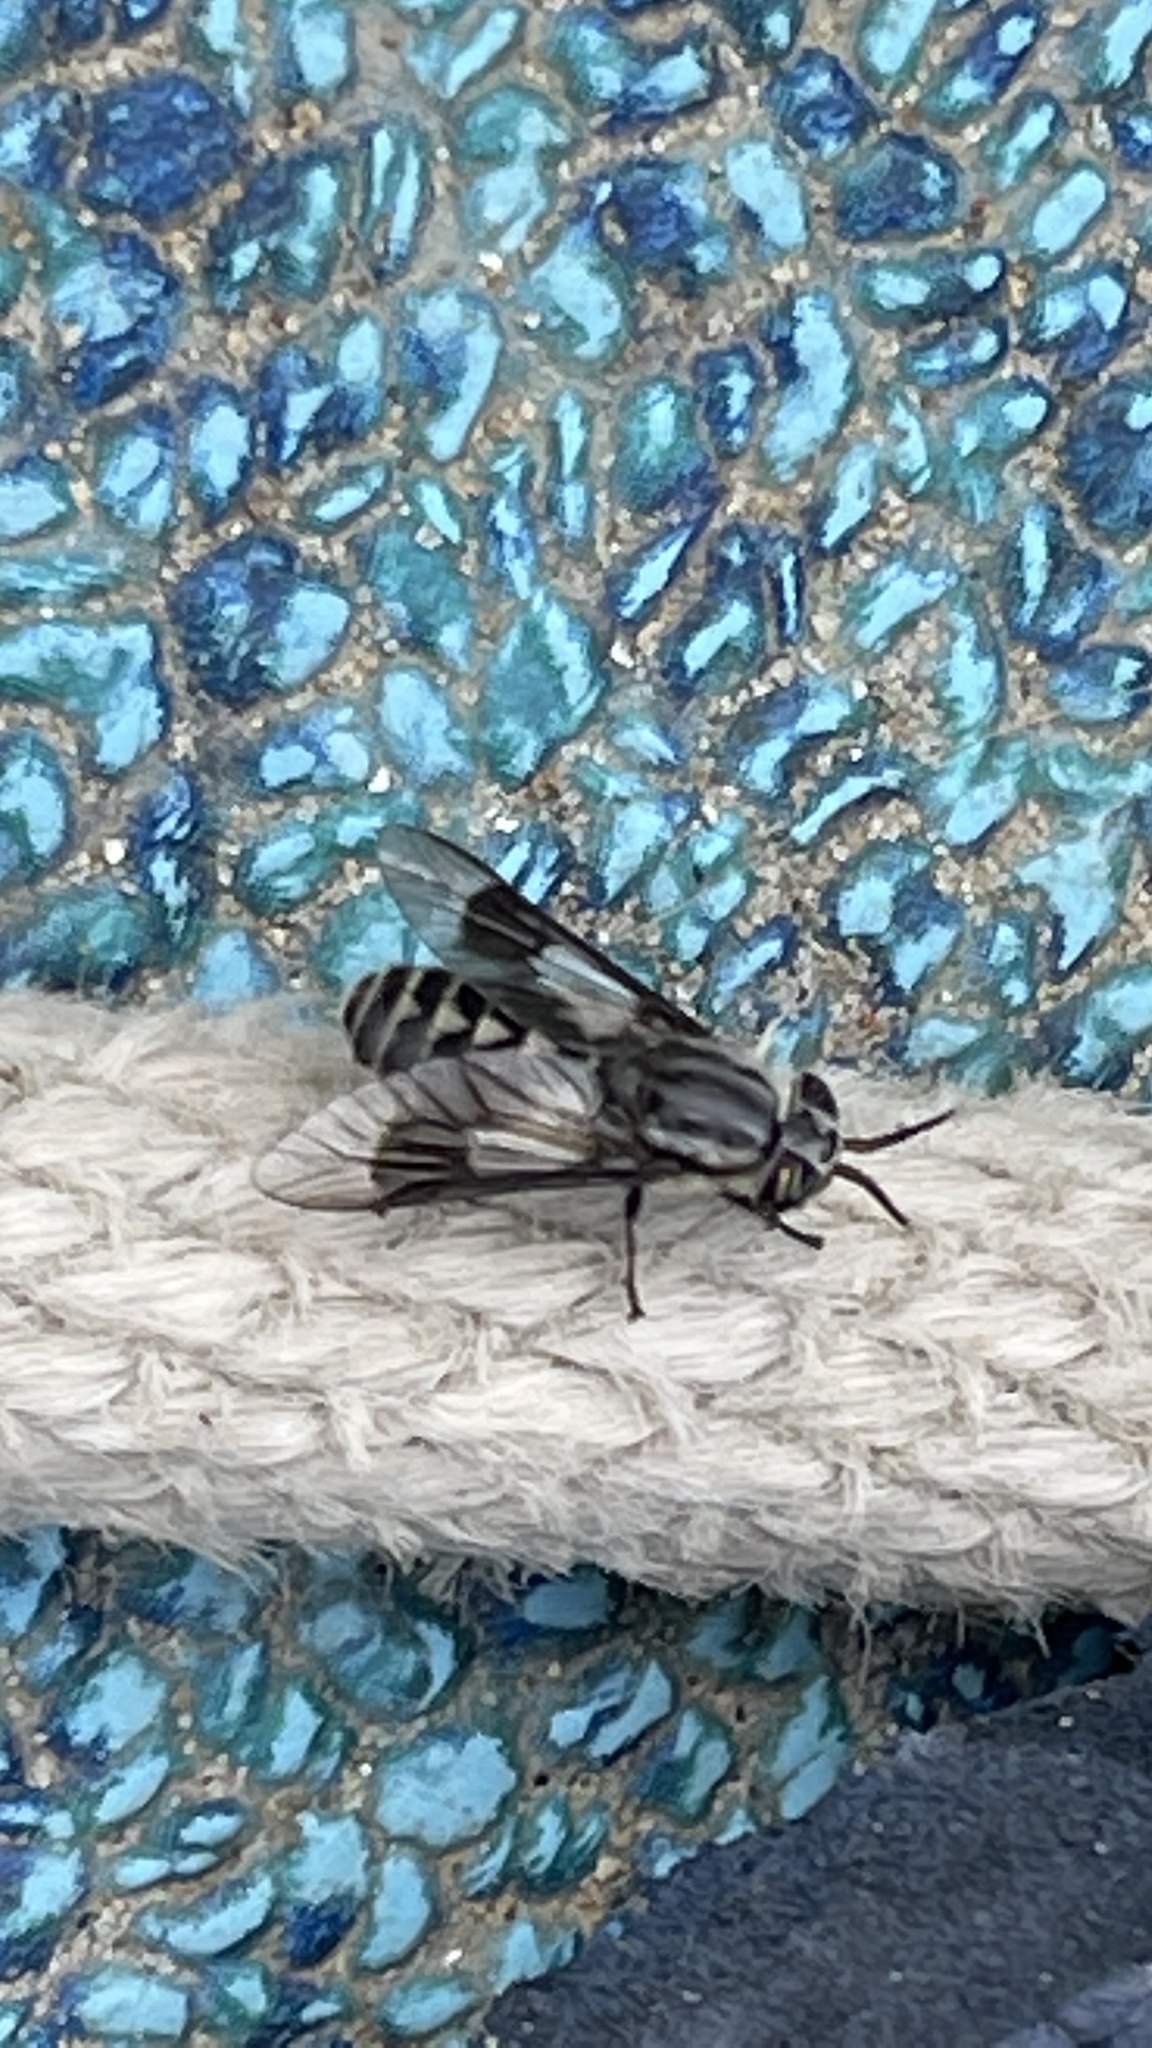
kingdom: Animalia
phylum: Arthropoda
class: Insecta
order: Diptera
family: Tabanidae
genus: Chrysops
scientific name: Chrysops aestuans
